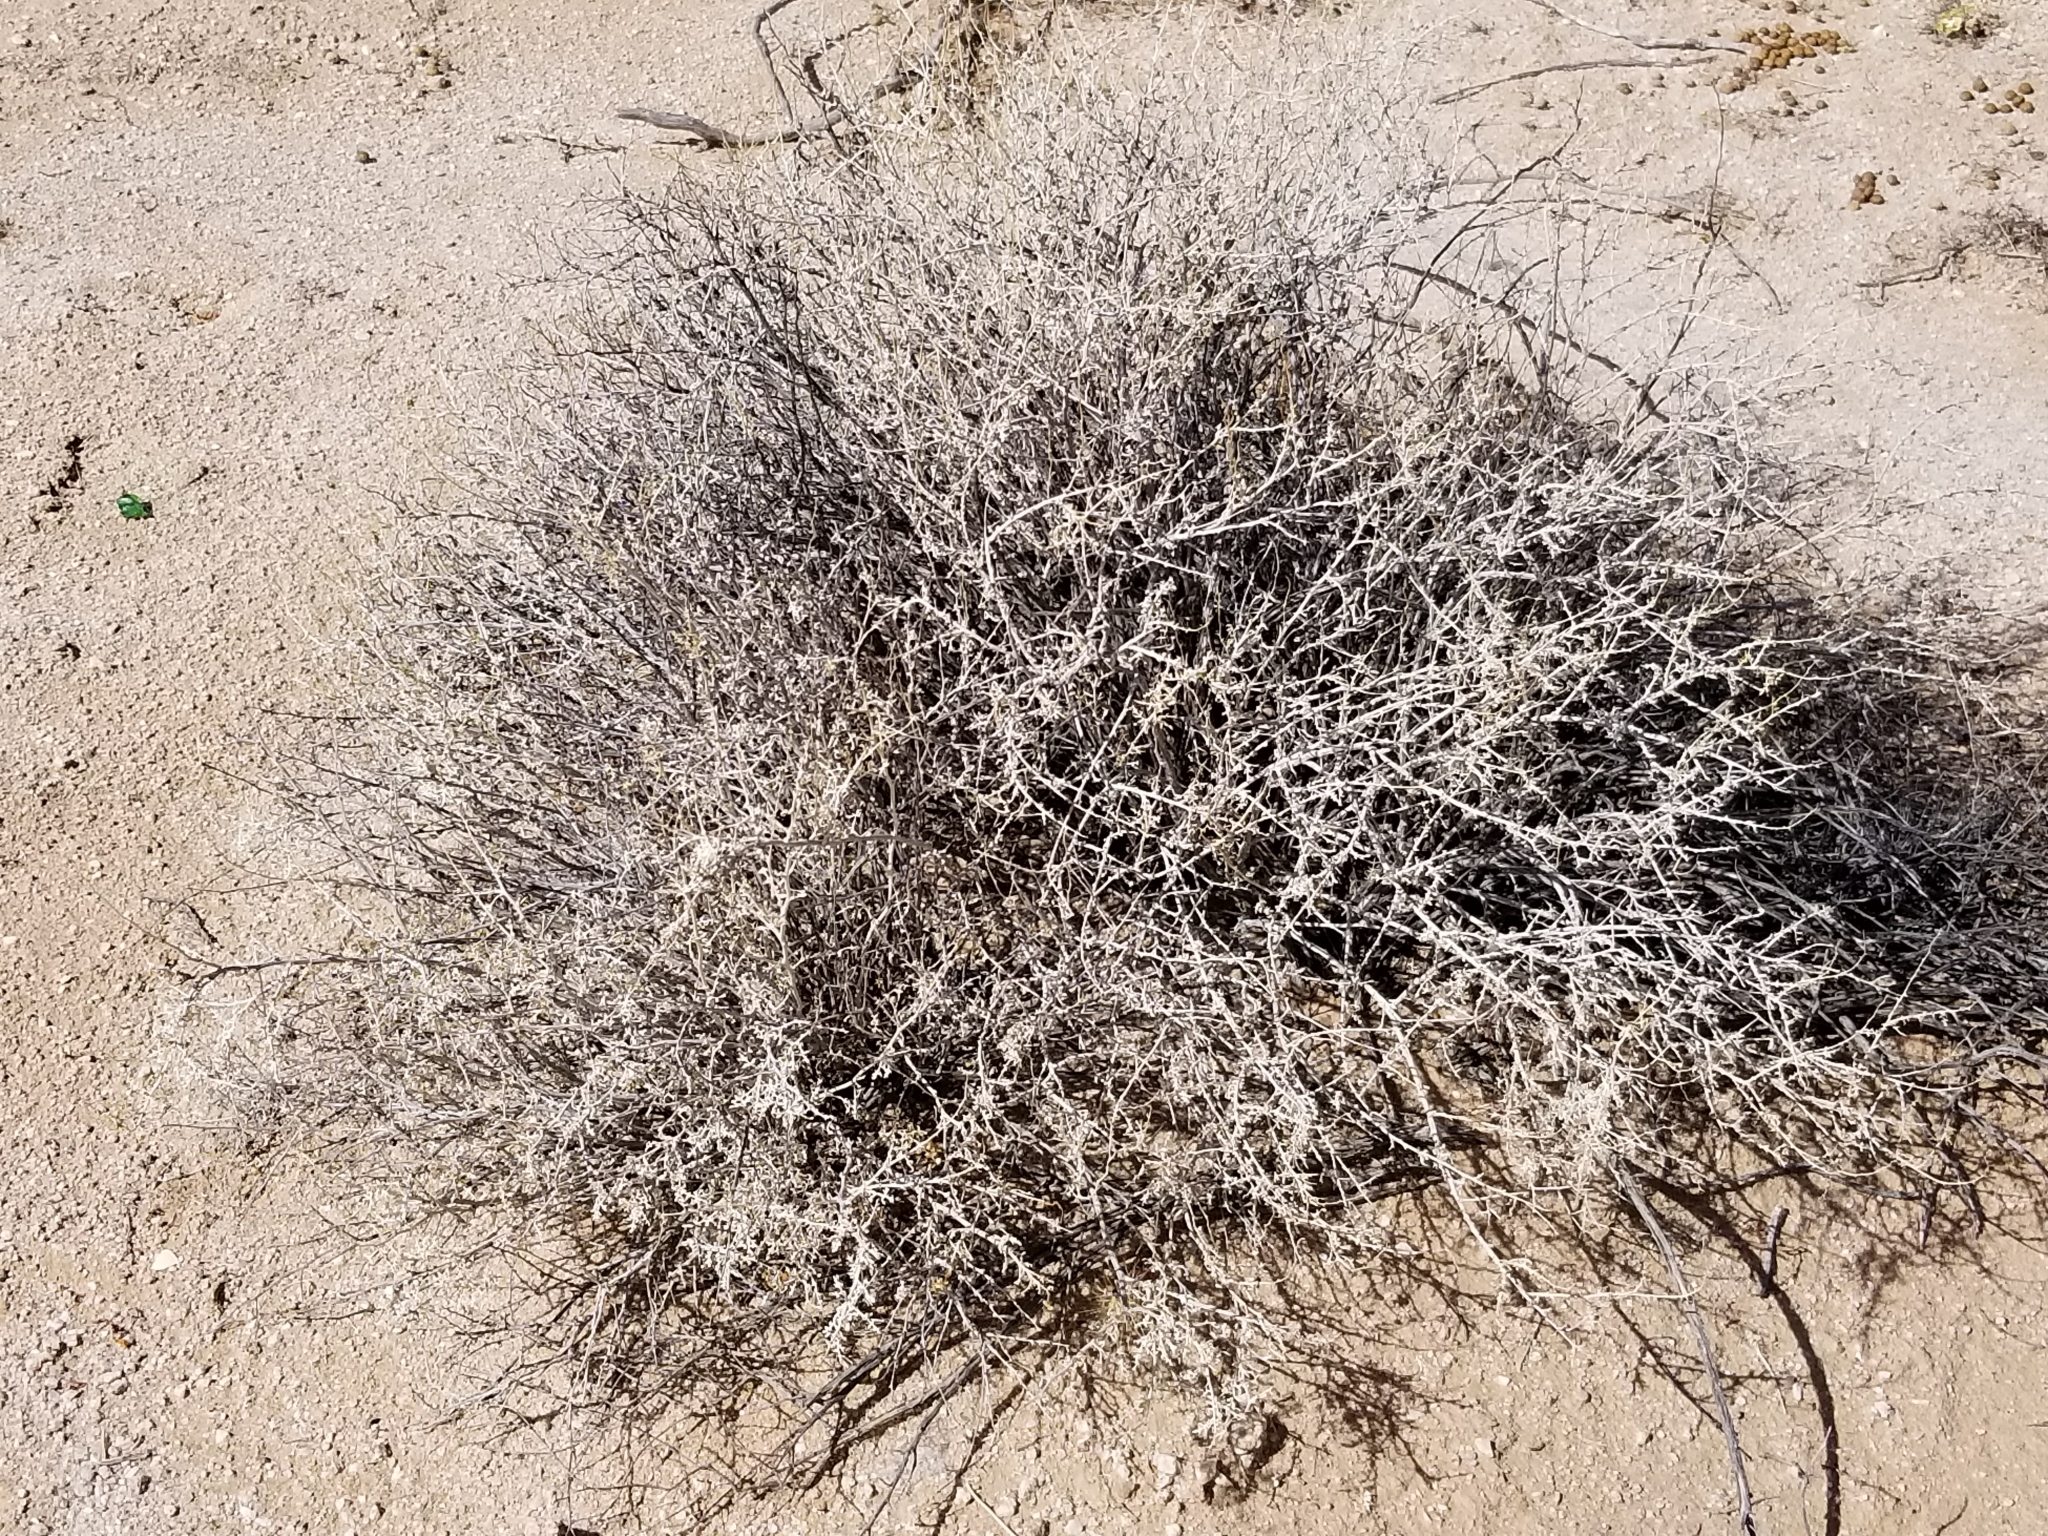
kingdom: Plantae
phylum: Tracheophyta
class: Magnoliopsida
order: Asterales
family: Asteraceae
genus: Ambrosia
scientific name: Ambrosia dumosa
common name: Bur-sage
